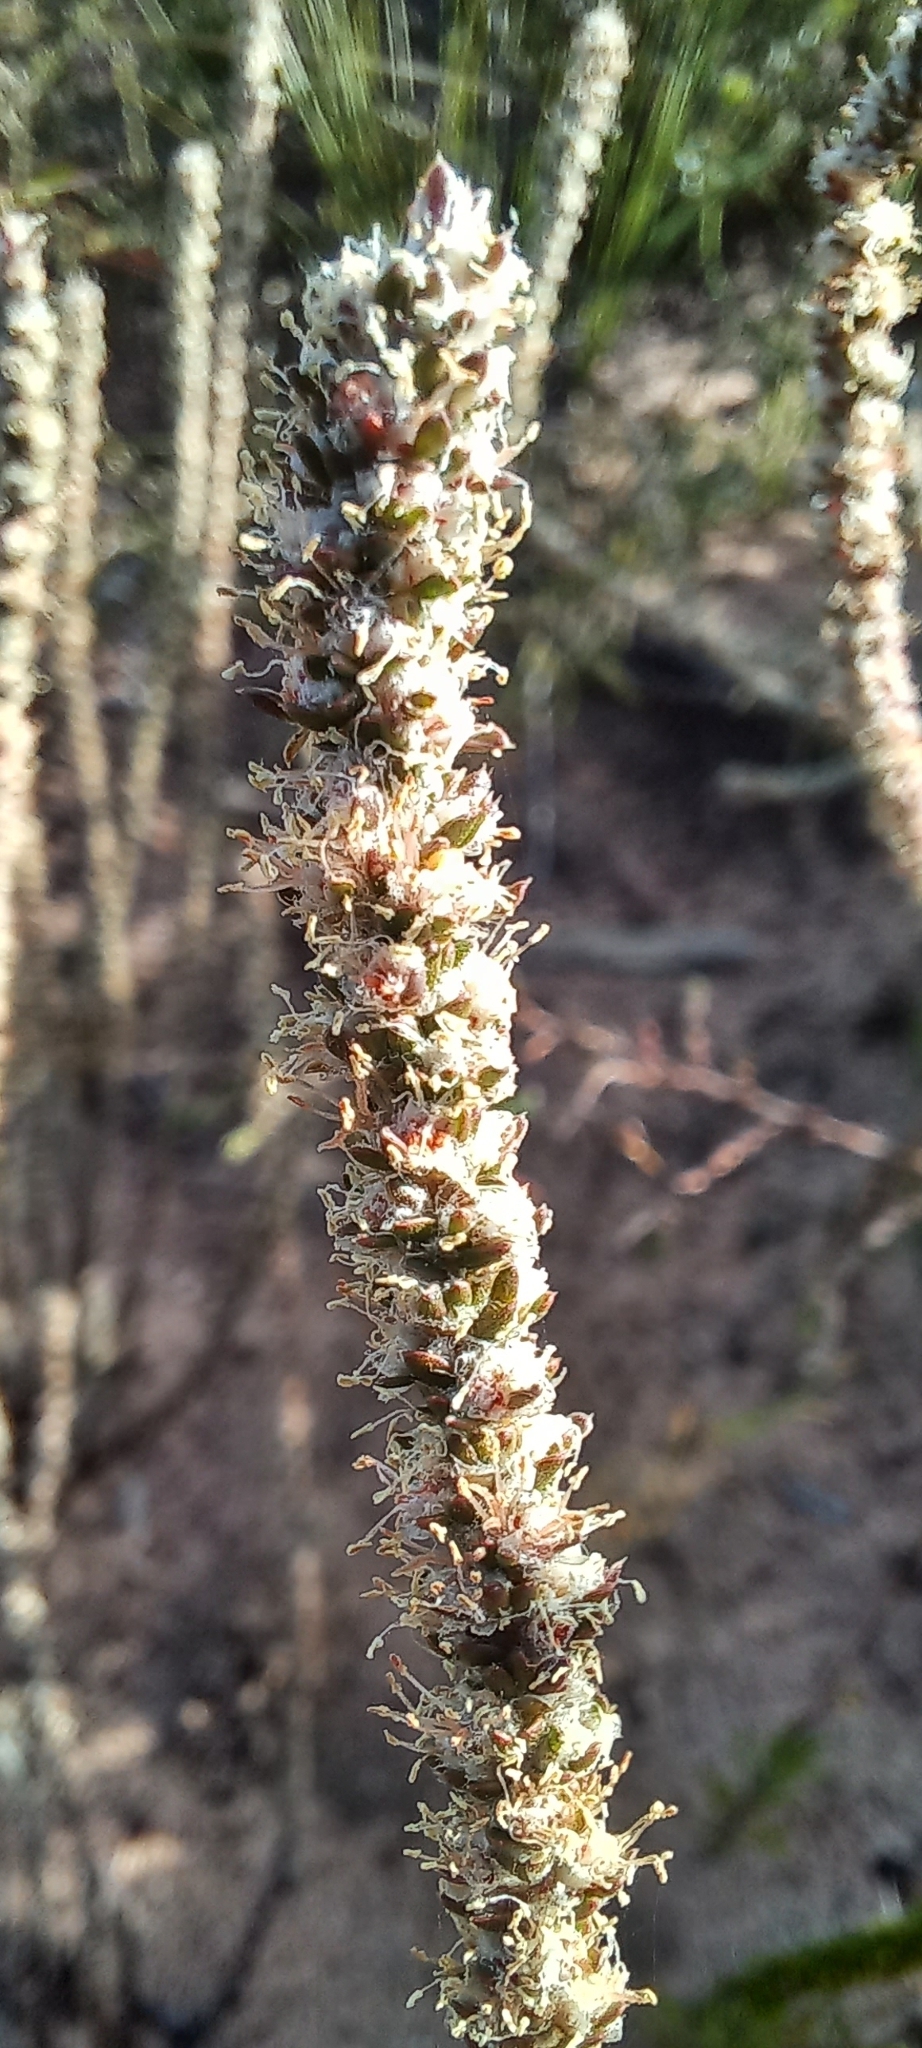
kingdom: Plantae
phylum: Tracheophyta
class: Magnoliopsida
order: Caryophyllales
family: Molluginaceae
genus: Polpoda
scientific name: Polpoda capensis
